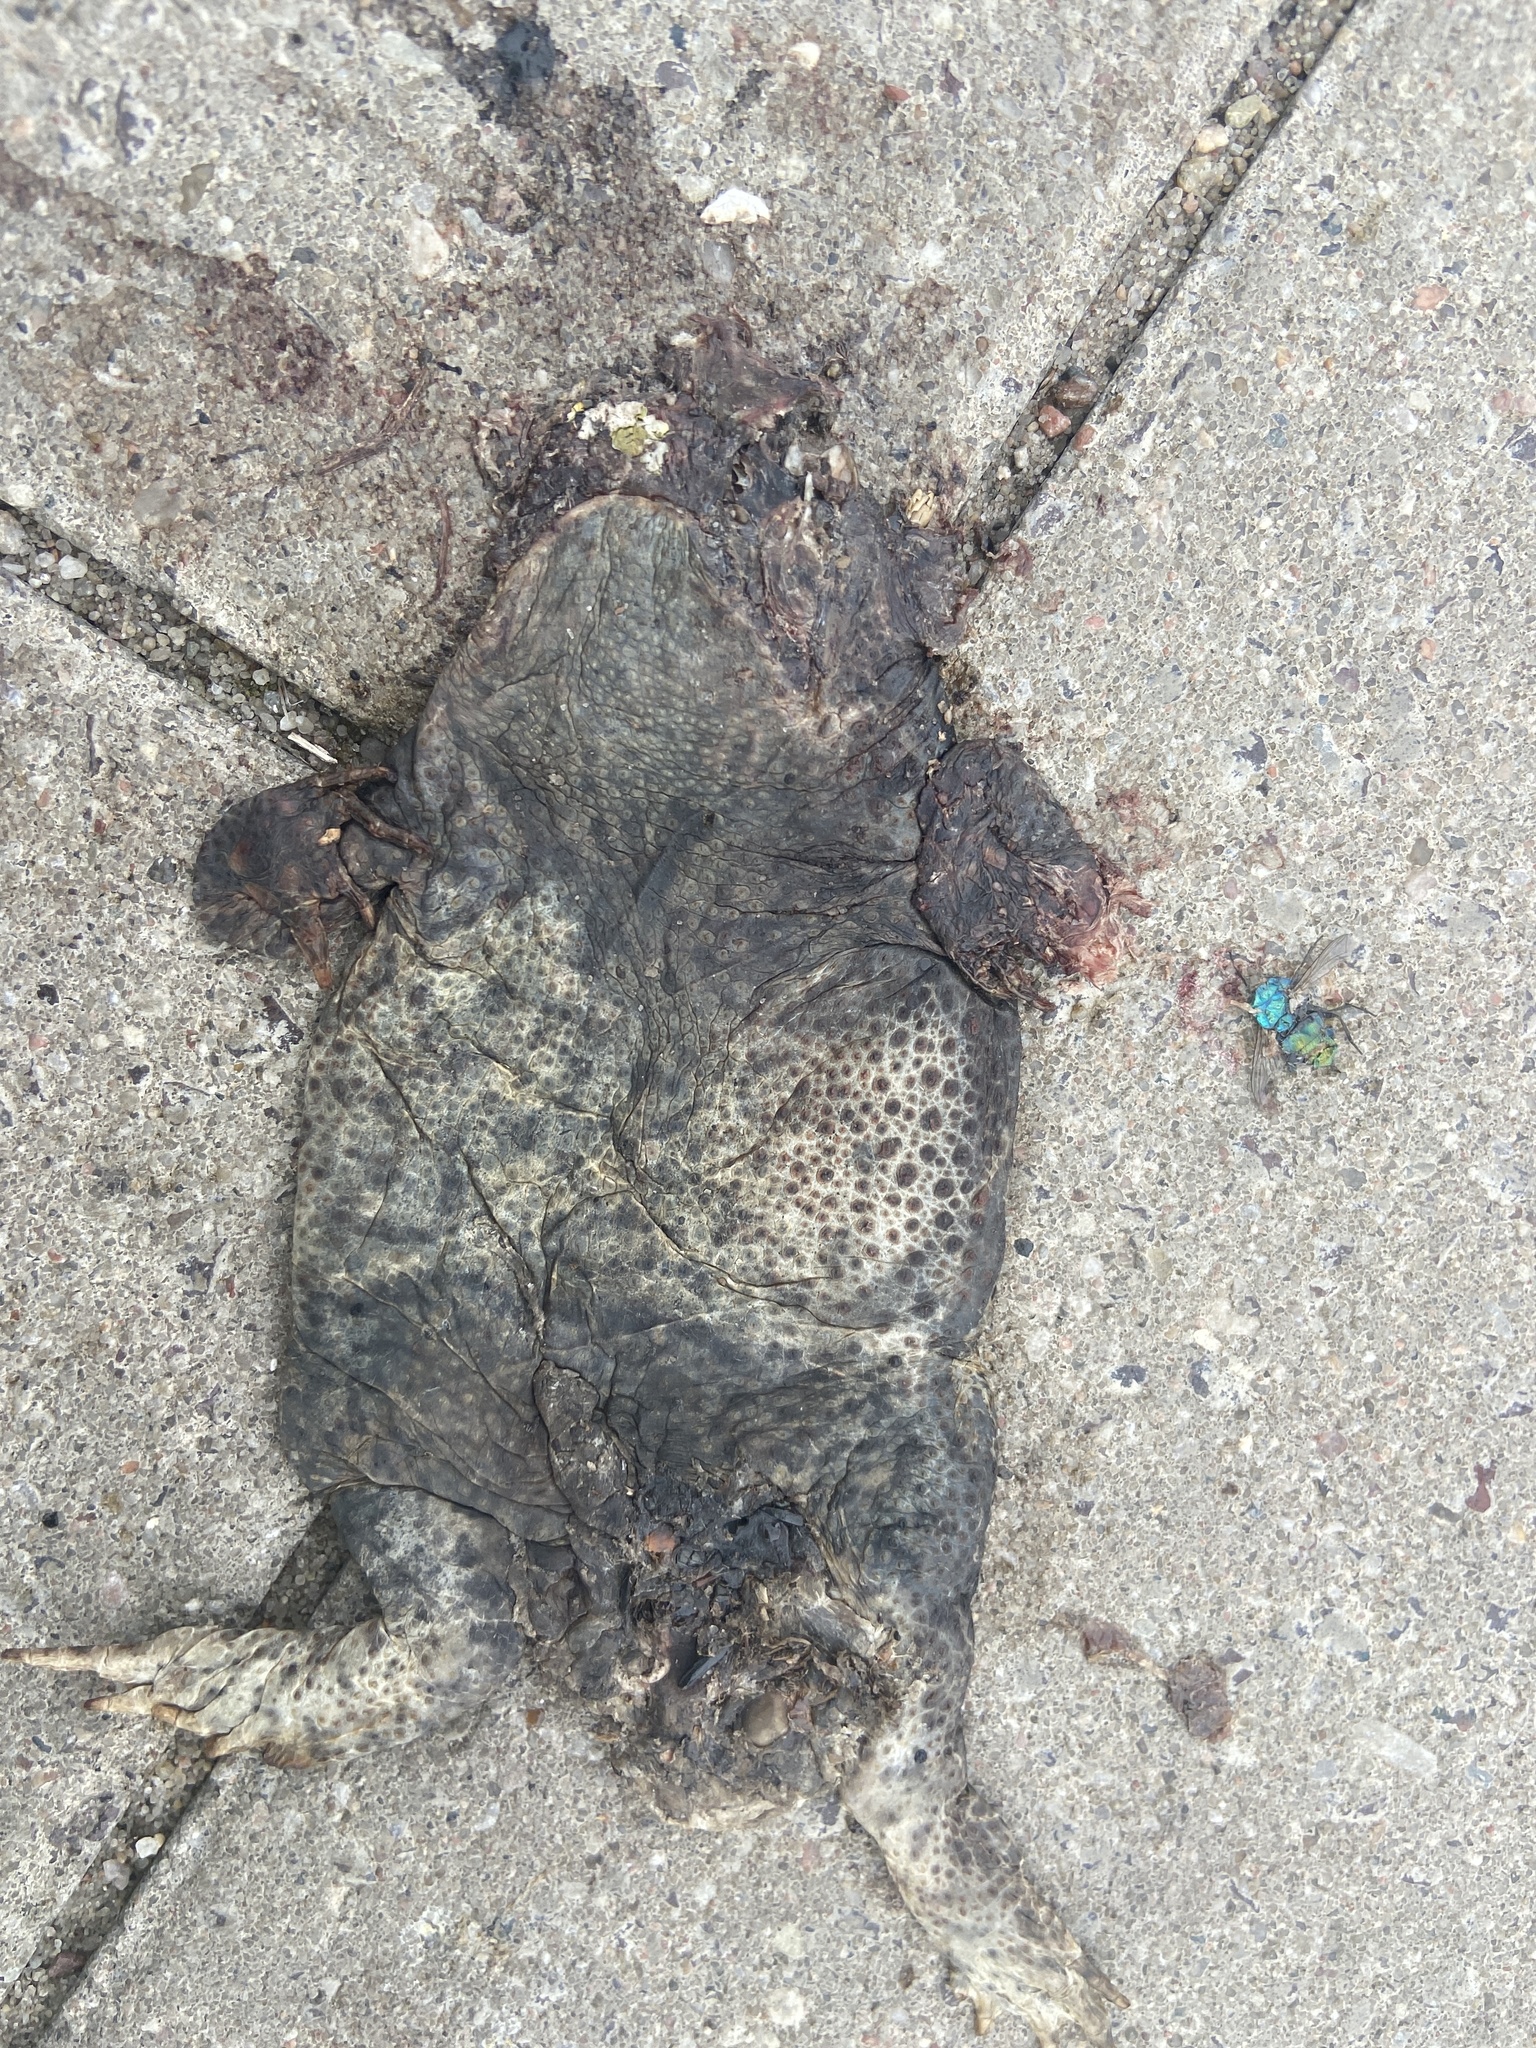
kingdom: Animalia
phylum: Chordata
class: Amphibia
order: Anura
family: Bufonidae
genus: Bufo
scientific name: Bufo bufo
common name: Common toad
